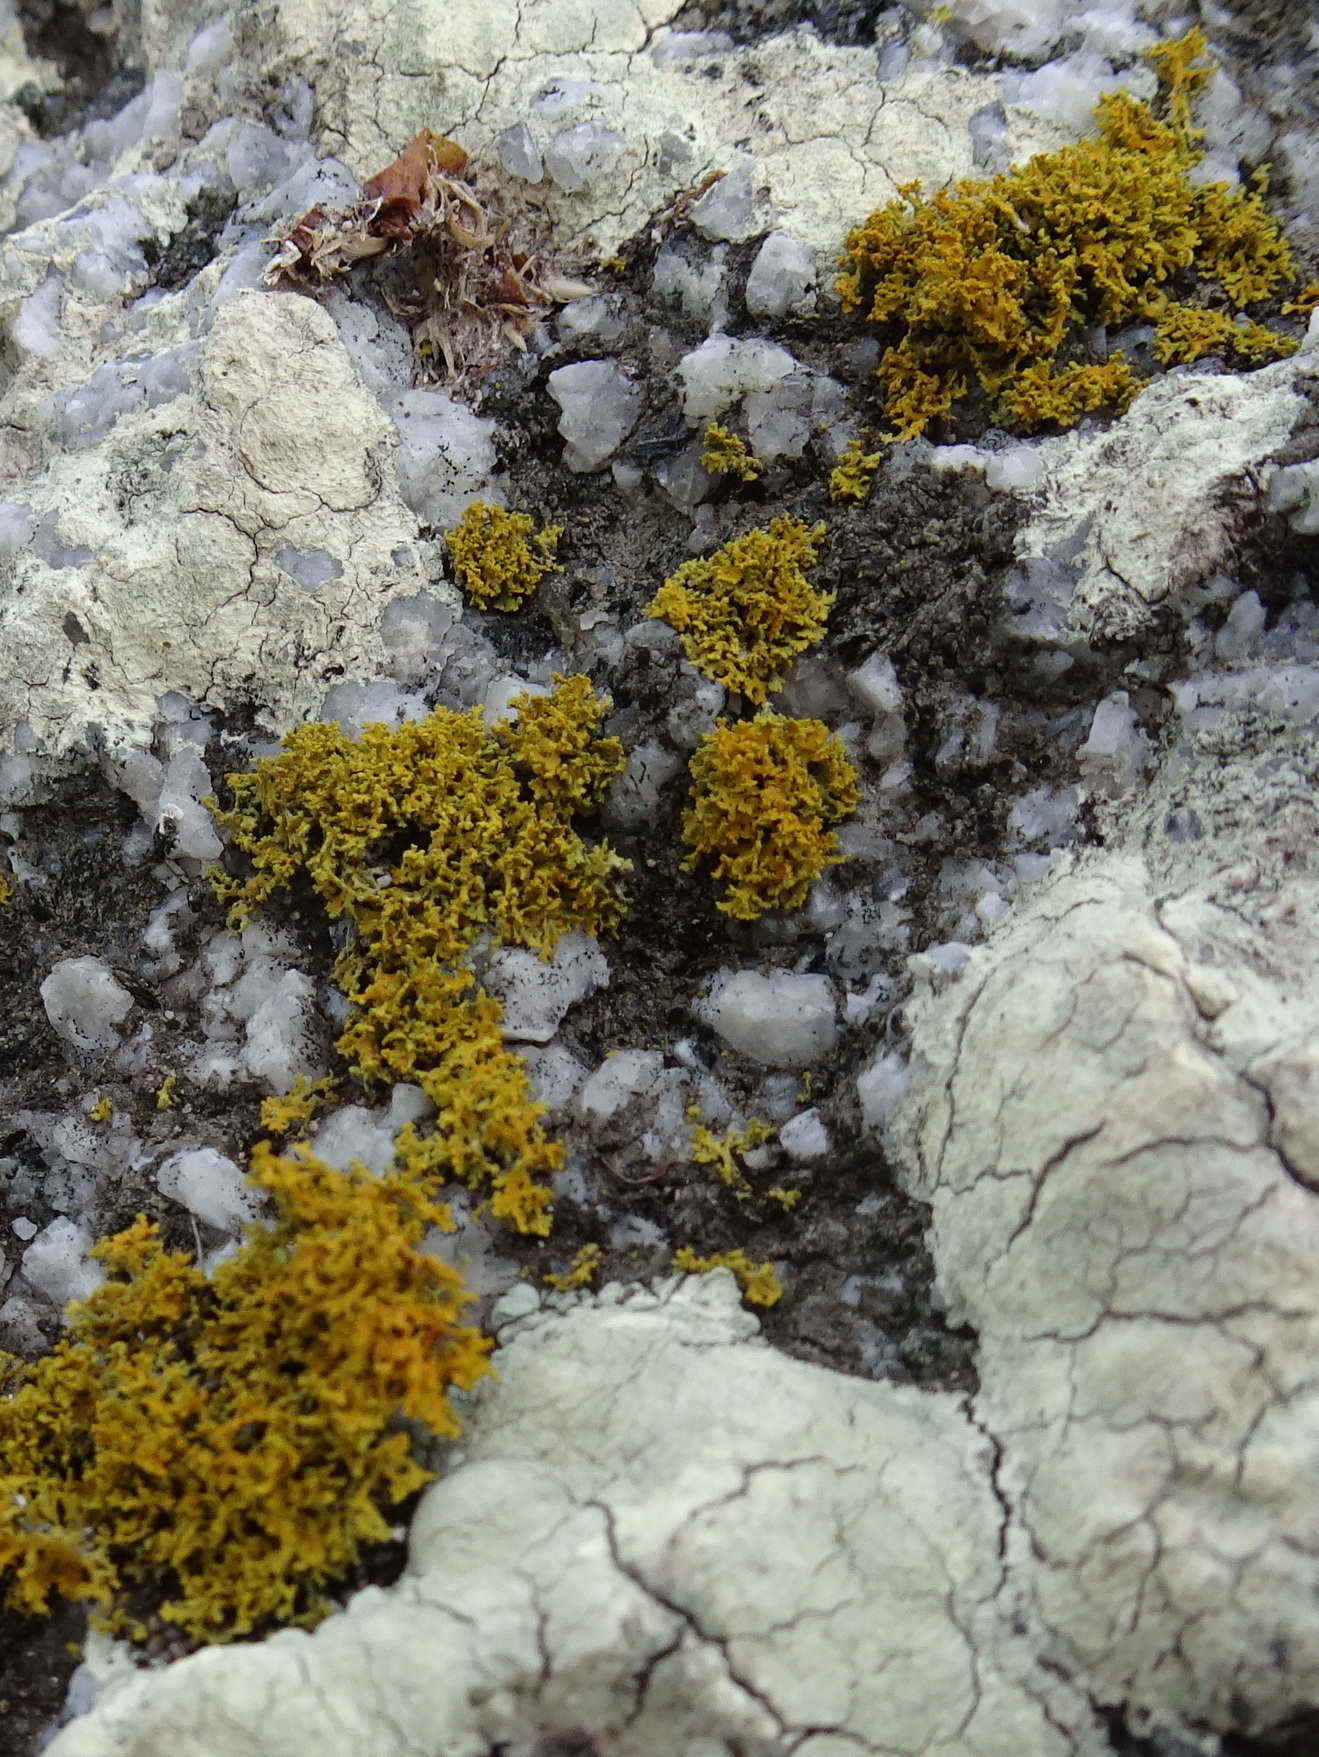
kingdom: Fungi
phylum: Ascomycota
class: Lecanoromycetes
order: Teloschistales
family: Teloschistaceae
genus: Polycauliona
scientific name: Polycauliona candelaria
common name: Shrubby sunburst lichen
